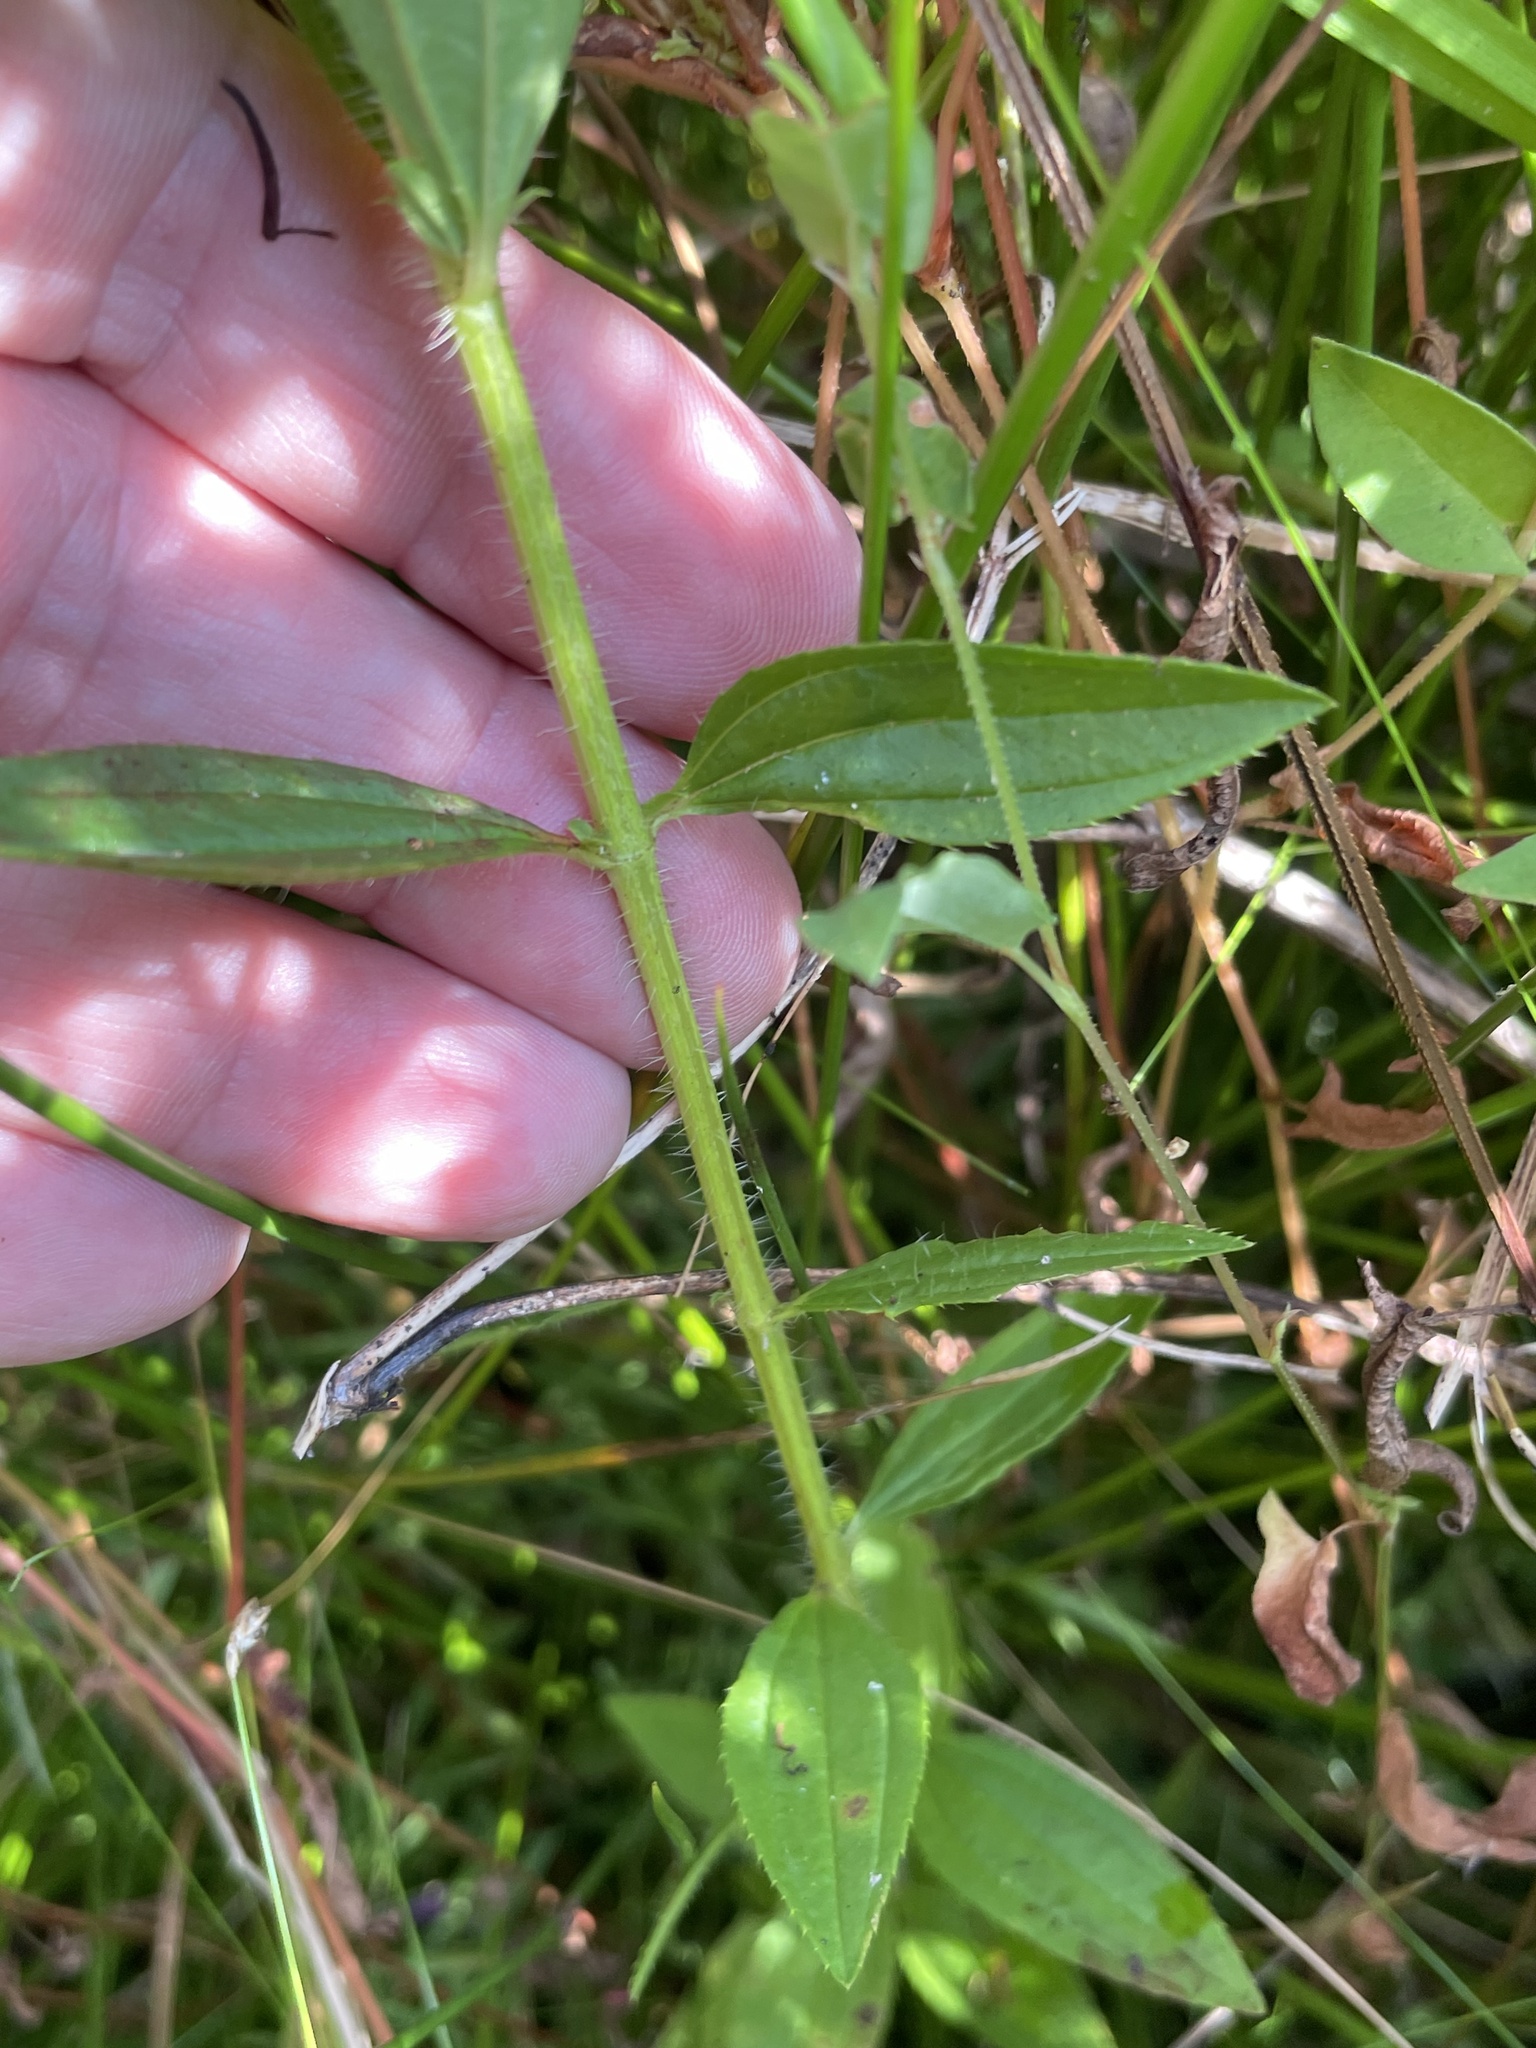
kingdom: Plantae
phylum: Tracheophyta
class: Magnoliopsida
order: Myrtales
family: Melastomataceae
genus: Rhexia
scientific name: Rhexia mariana
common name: Dull meadow-pitcher
